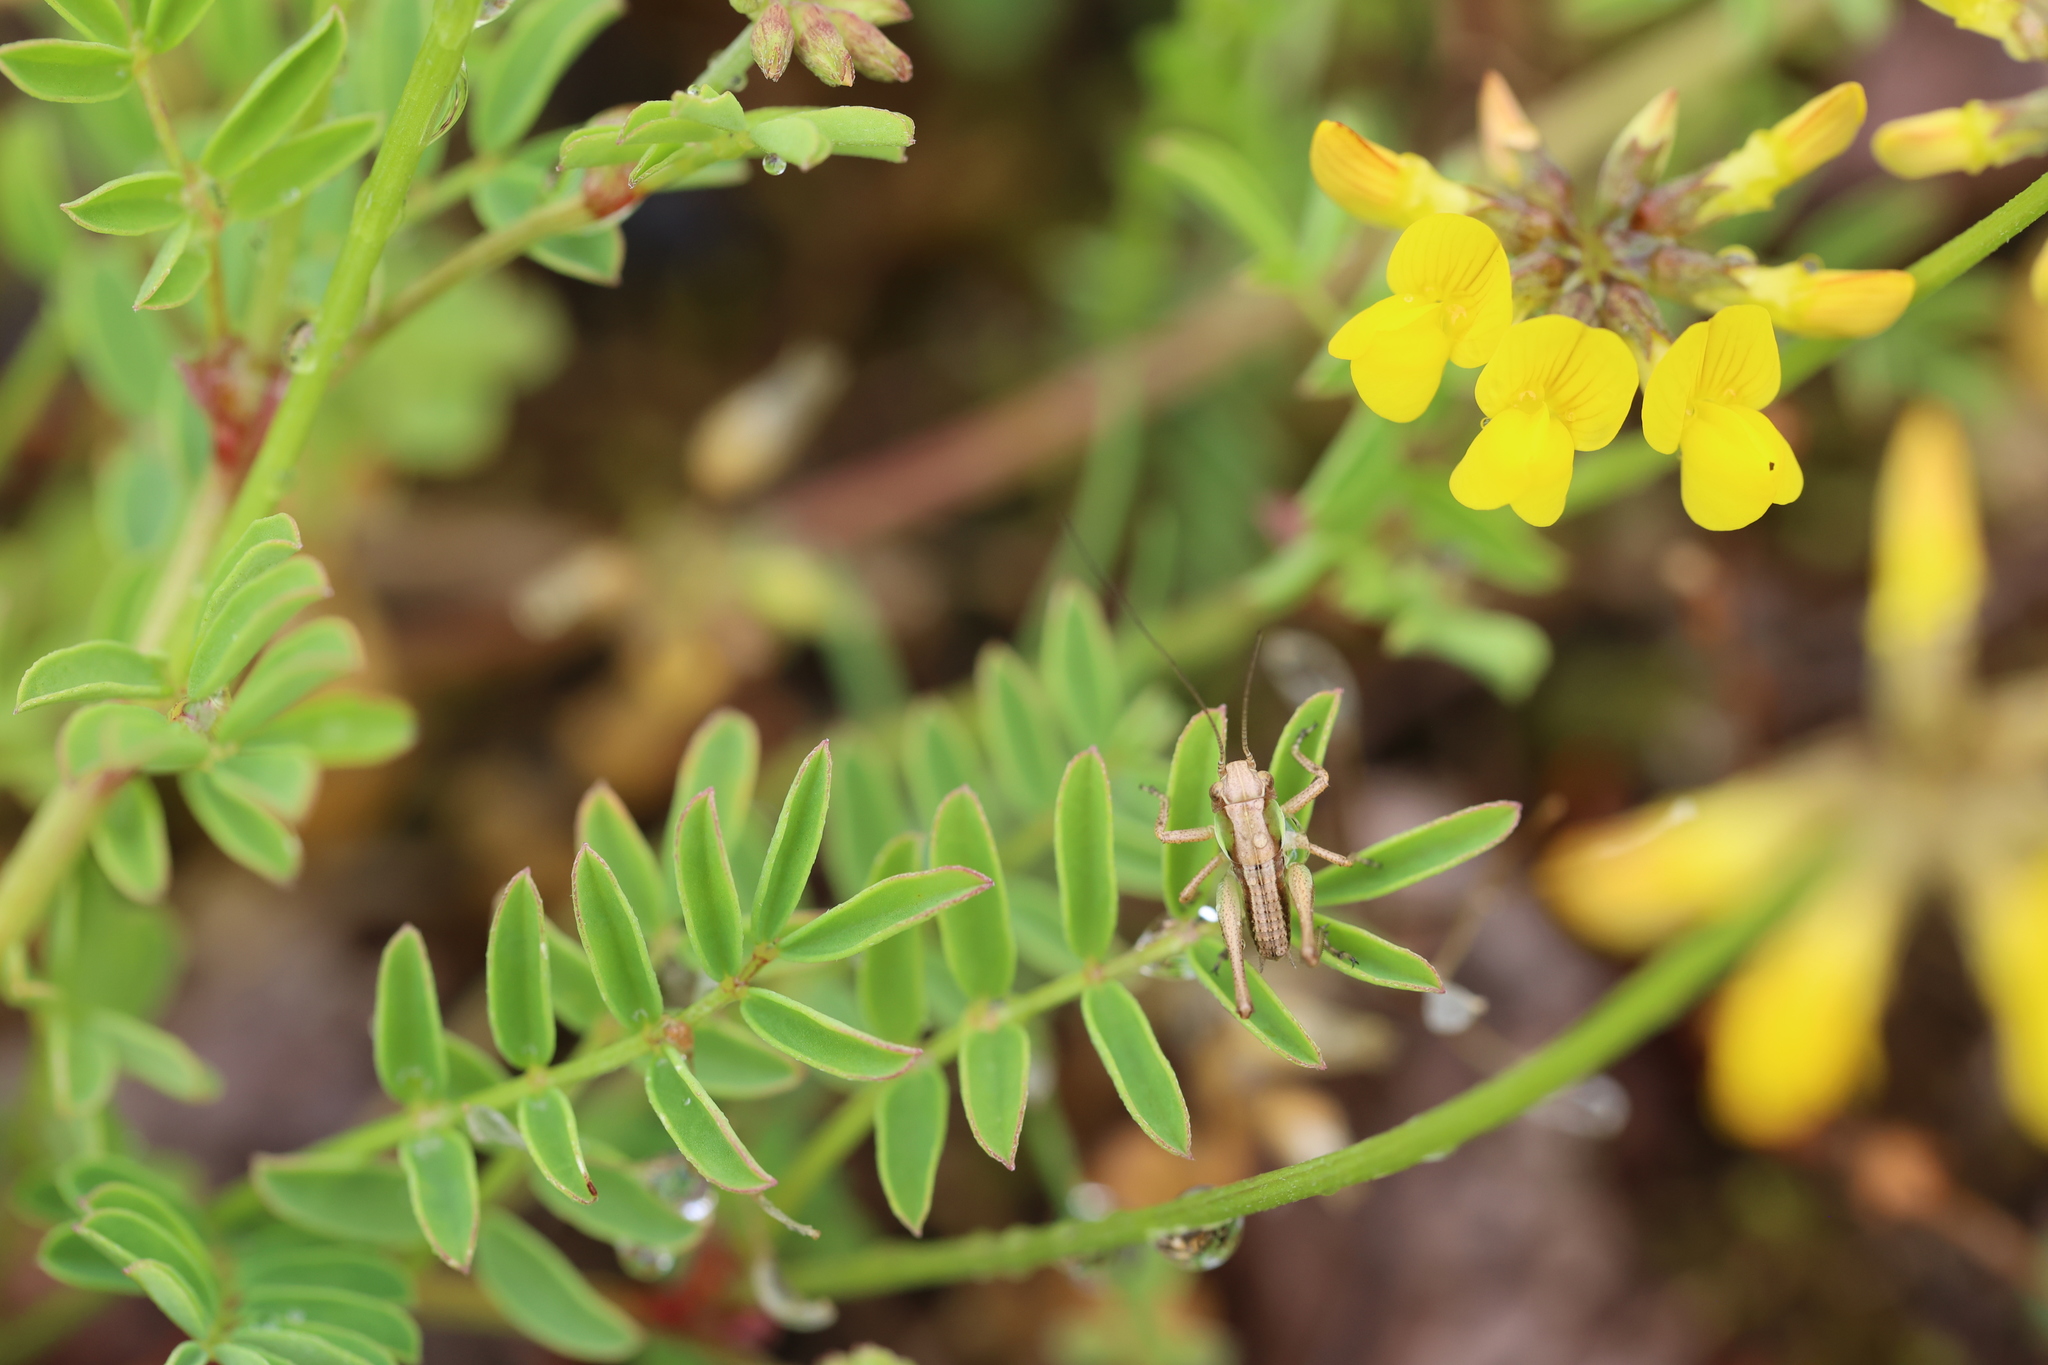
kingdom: Animalia
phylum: Arthropoda
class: Insecta
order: Orthoptera
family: Tettigoniidae
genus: Platycleis
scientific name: Platycleis albopunctata
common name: Grey bush-cricket
